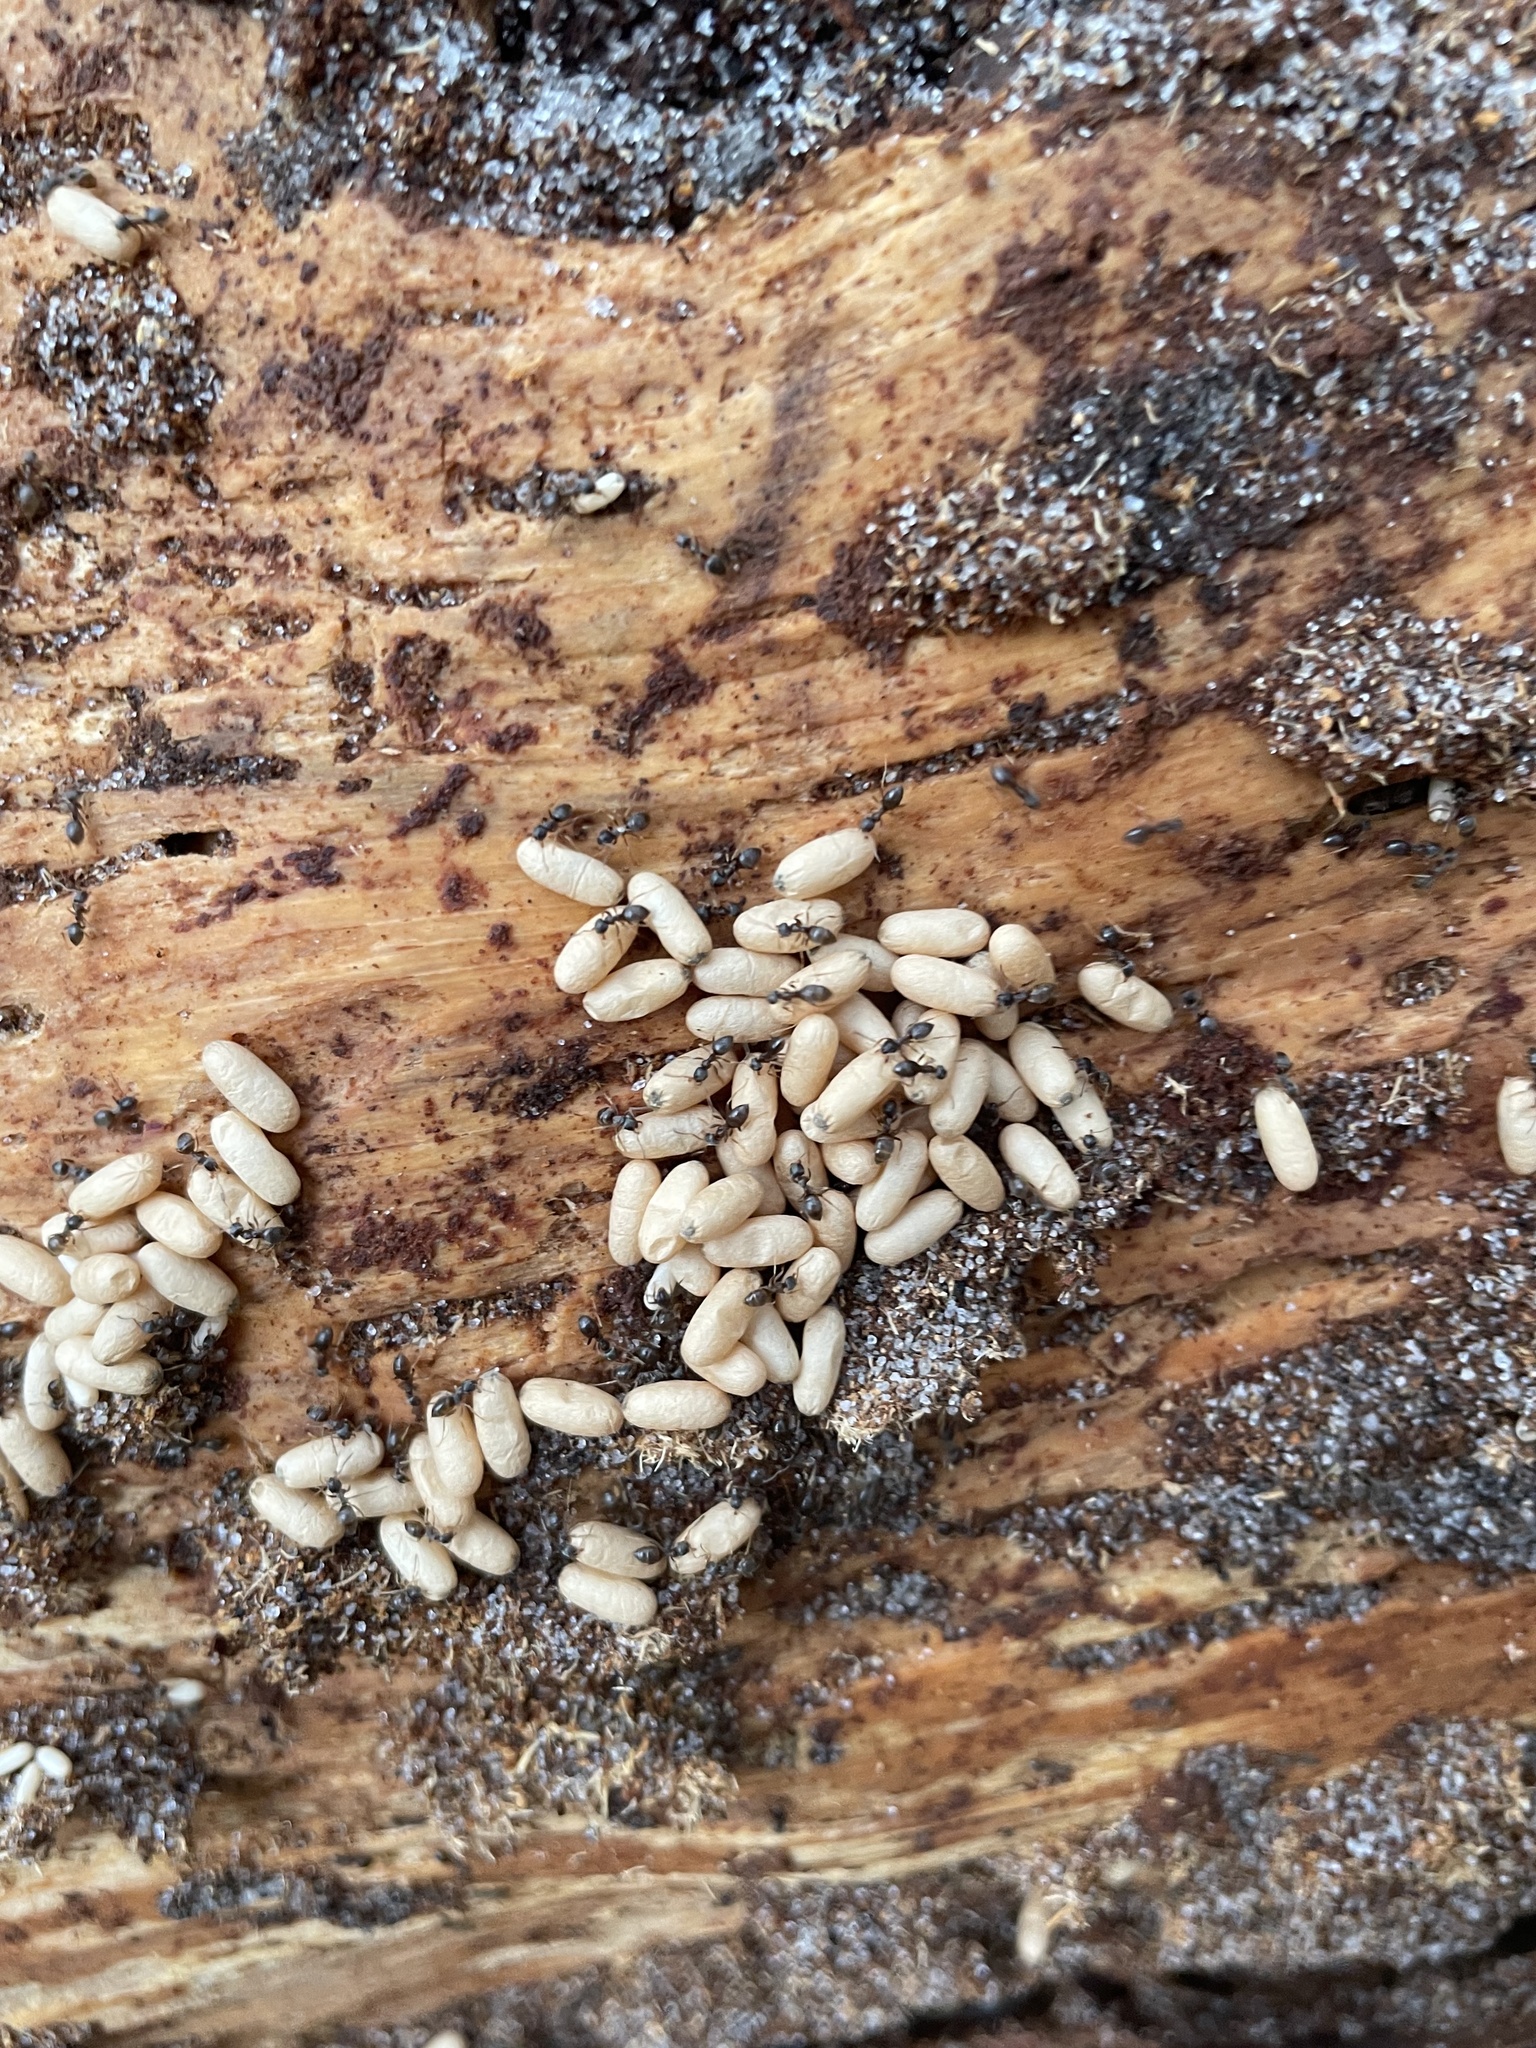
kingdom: Animalia
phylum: Arthropoda
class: Insecta
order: Hymenoptera
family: Formicidae
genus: Lasius
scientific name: Lasius americanus
